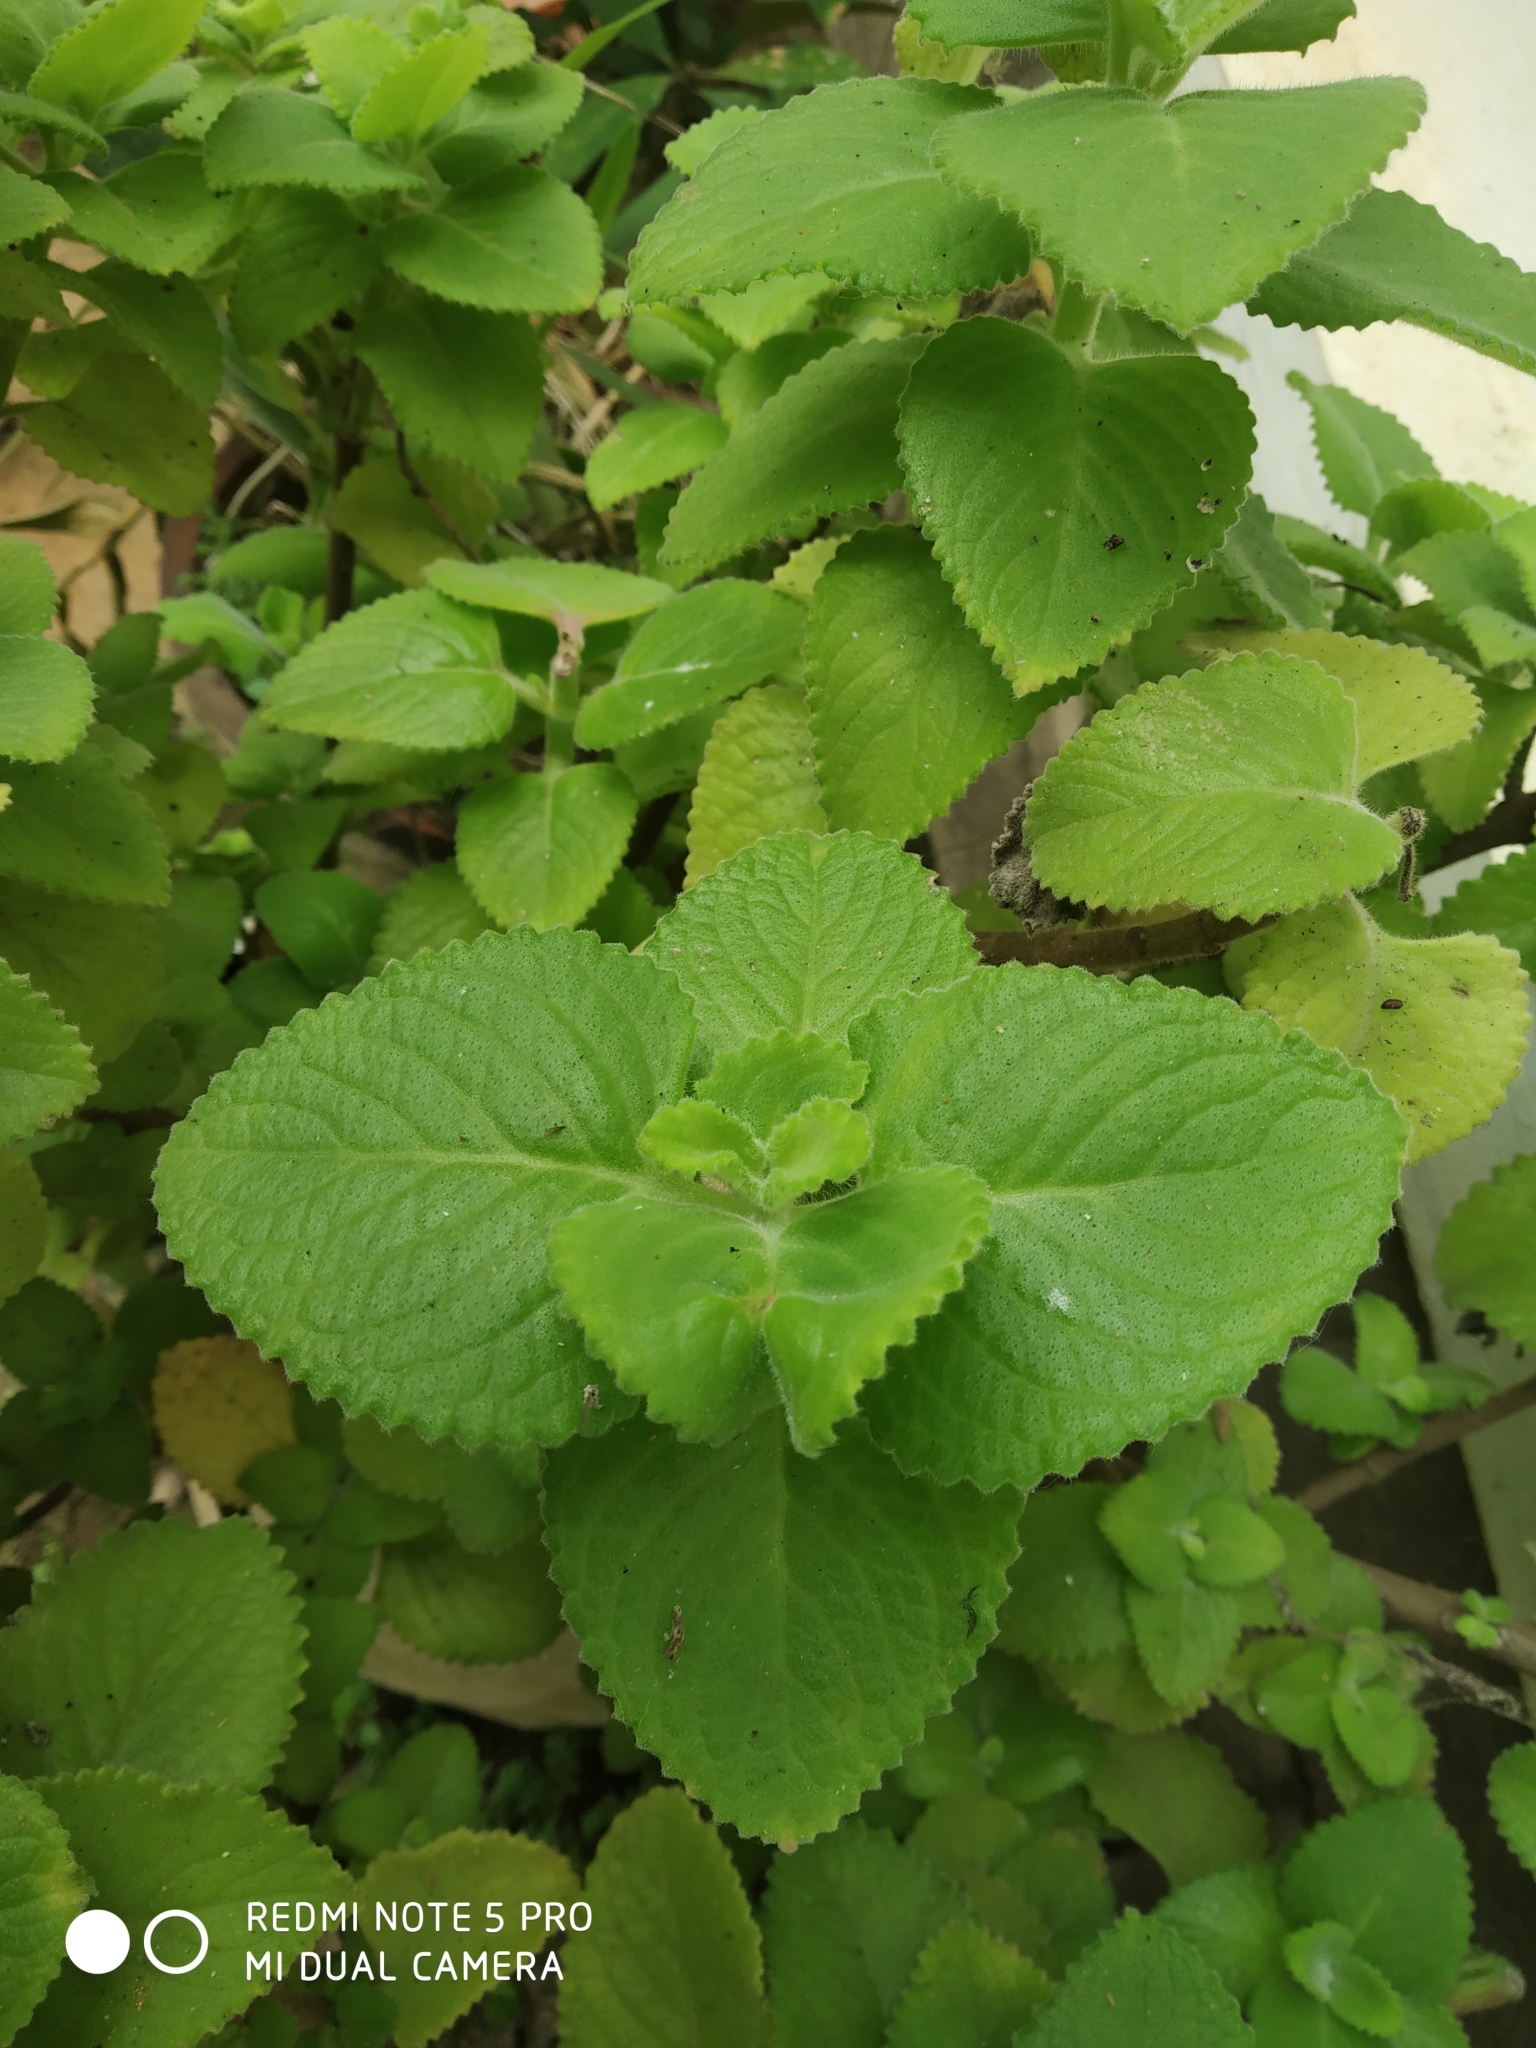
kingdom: Plantae
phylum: Tracheophyta
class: Magnoliopsida
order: Lamiales
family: Lamiaceae
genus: Coleus
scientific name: Coleus barbatus
